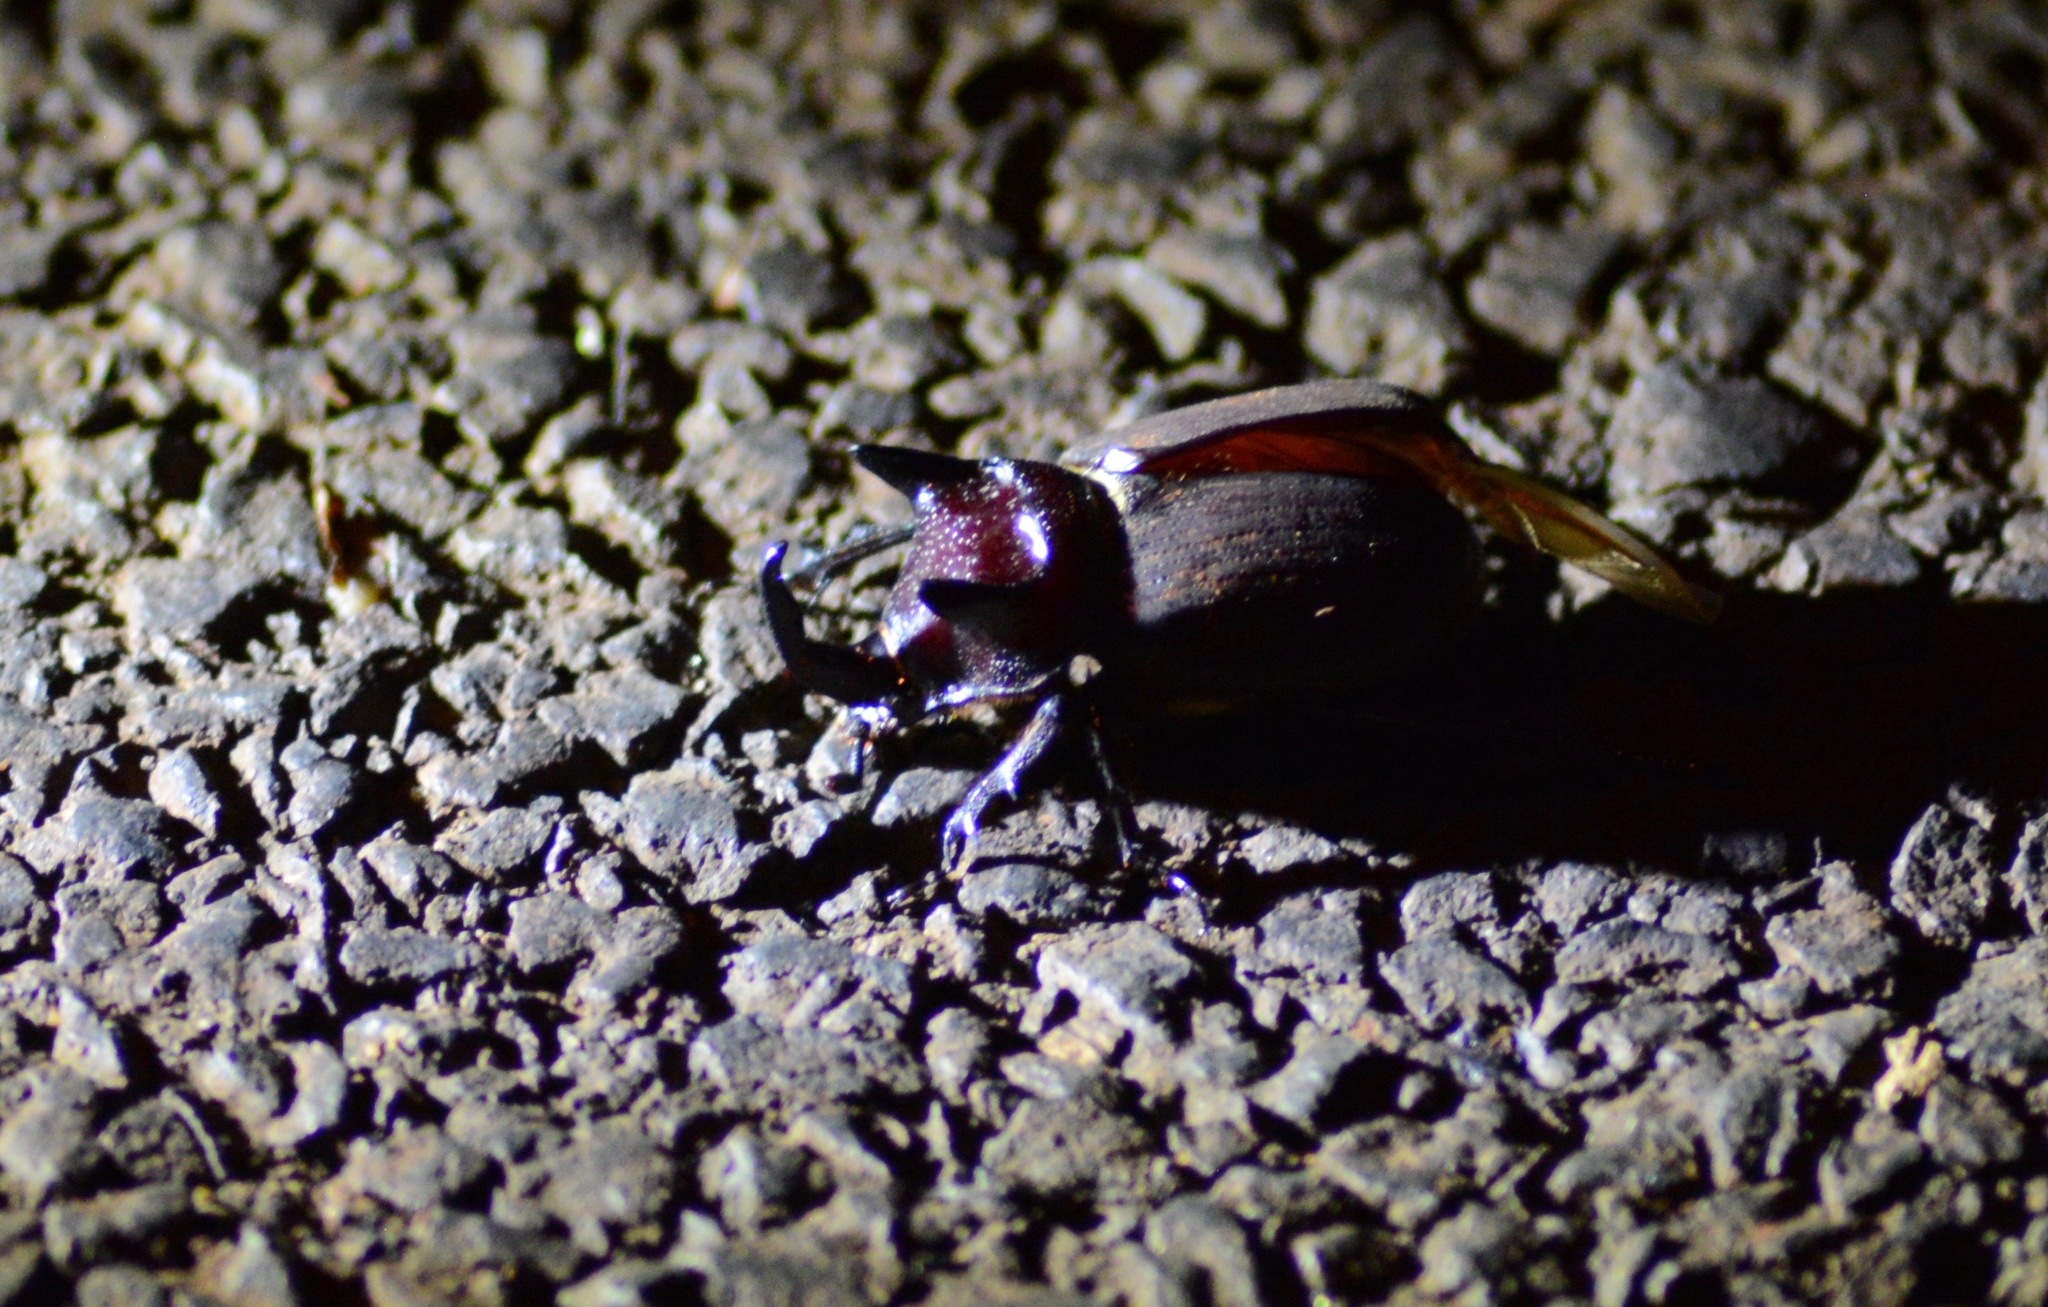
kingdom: Animalia
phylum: Arthropoda
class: Insecta
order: Coleoptera
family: Scarabaeidae
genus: Coelosis
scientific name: Coelosis bicornis
